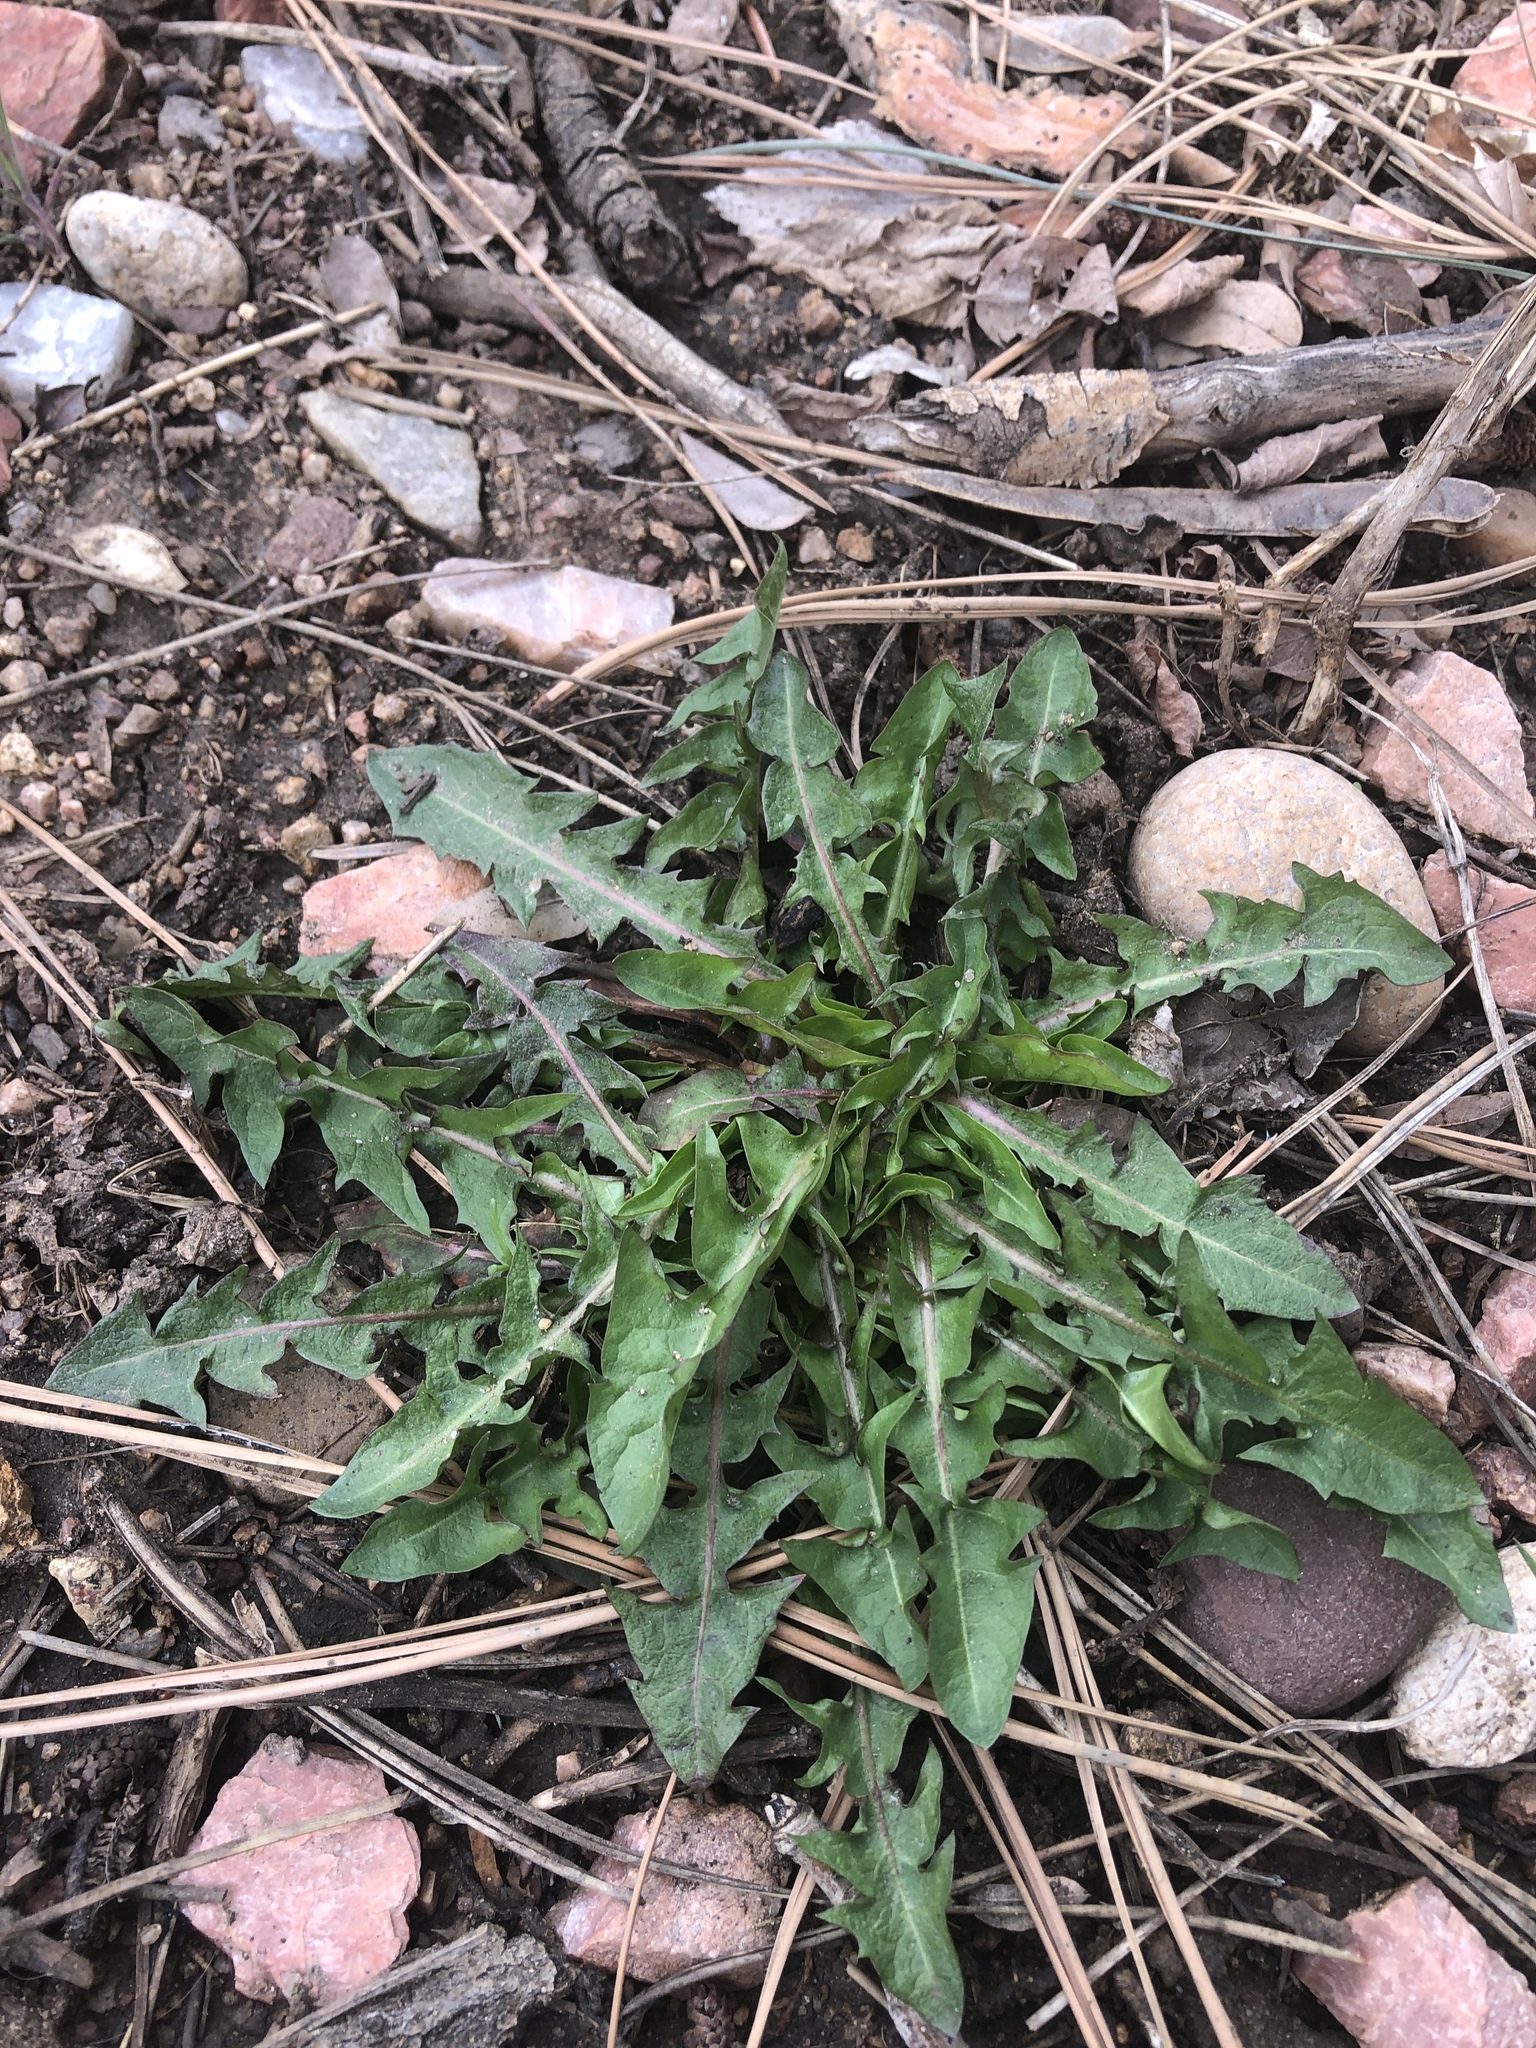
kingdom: Plantae
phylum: Tracheophyta
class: Magnoliopsida
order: Asterales
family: Asteraceae
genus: Taraxacum
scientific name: Taraxacum officinale
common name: Common dandelion
